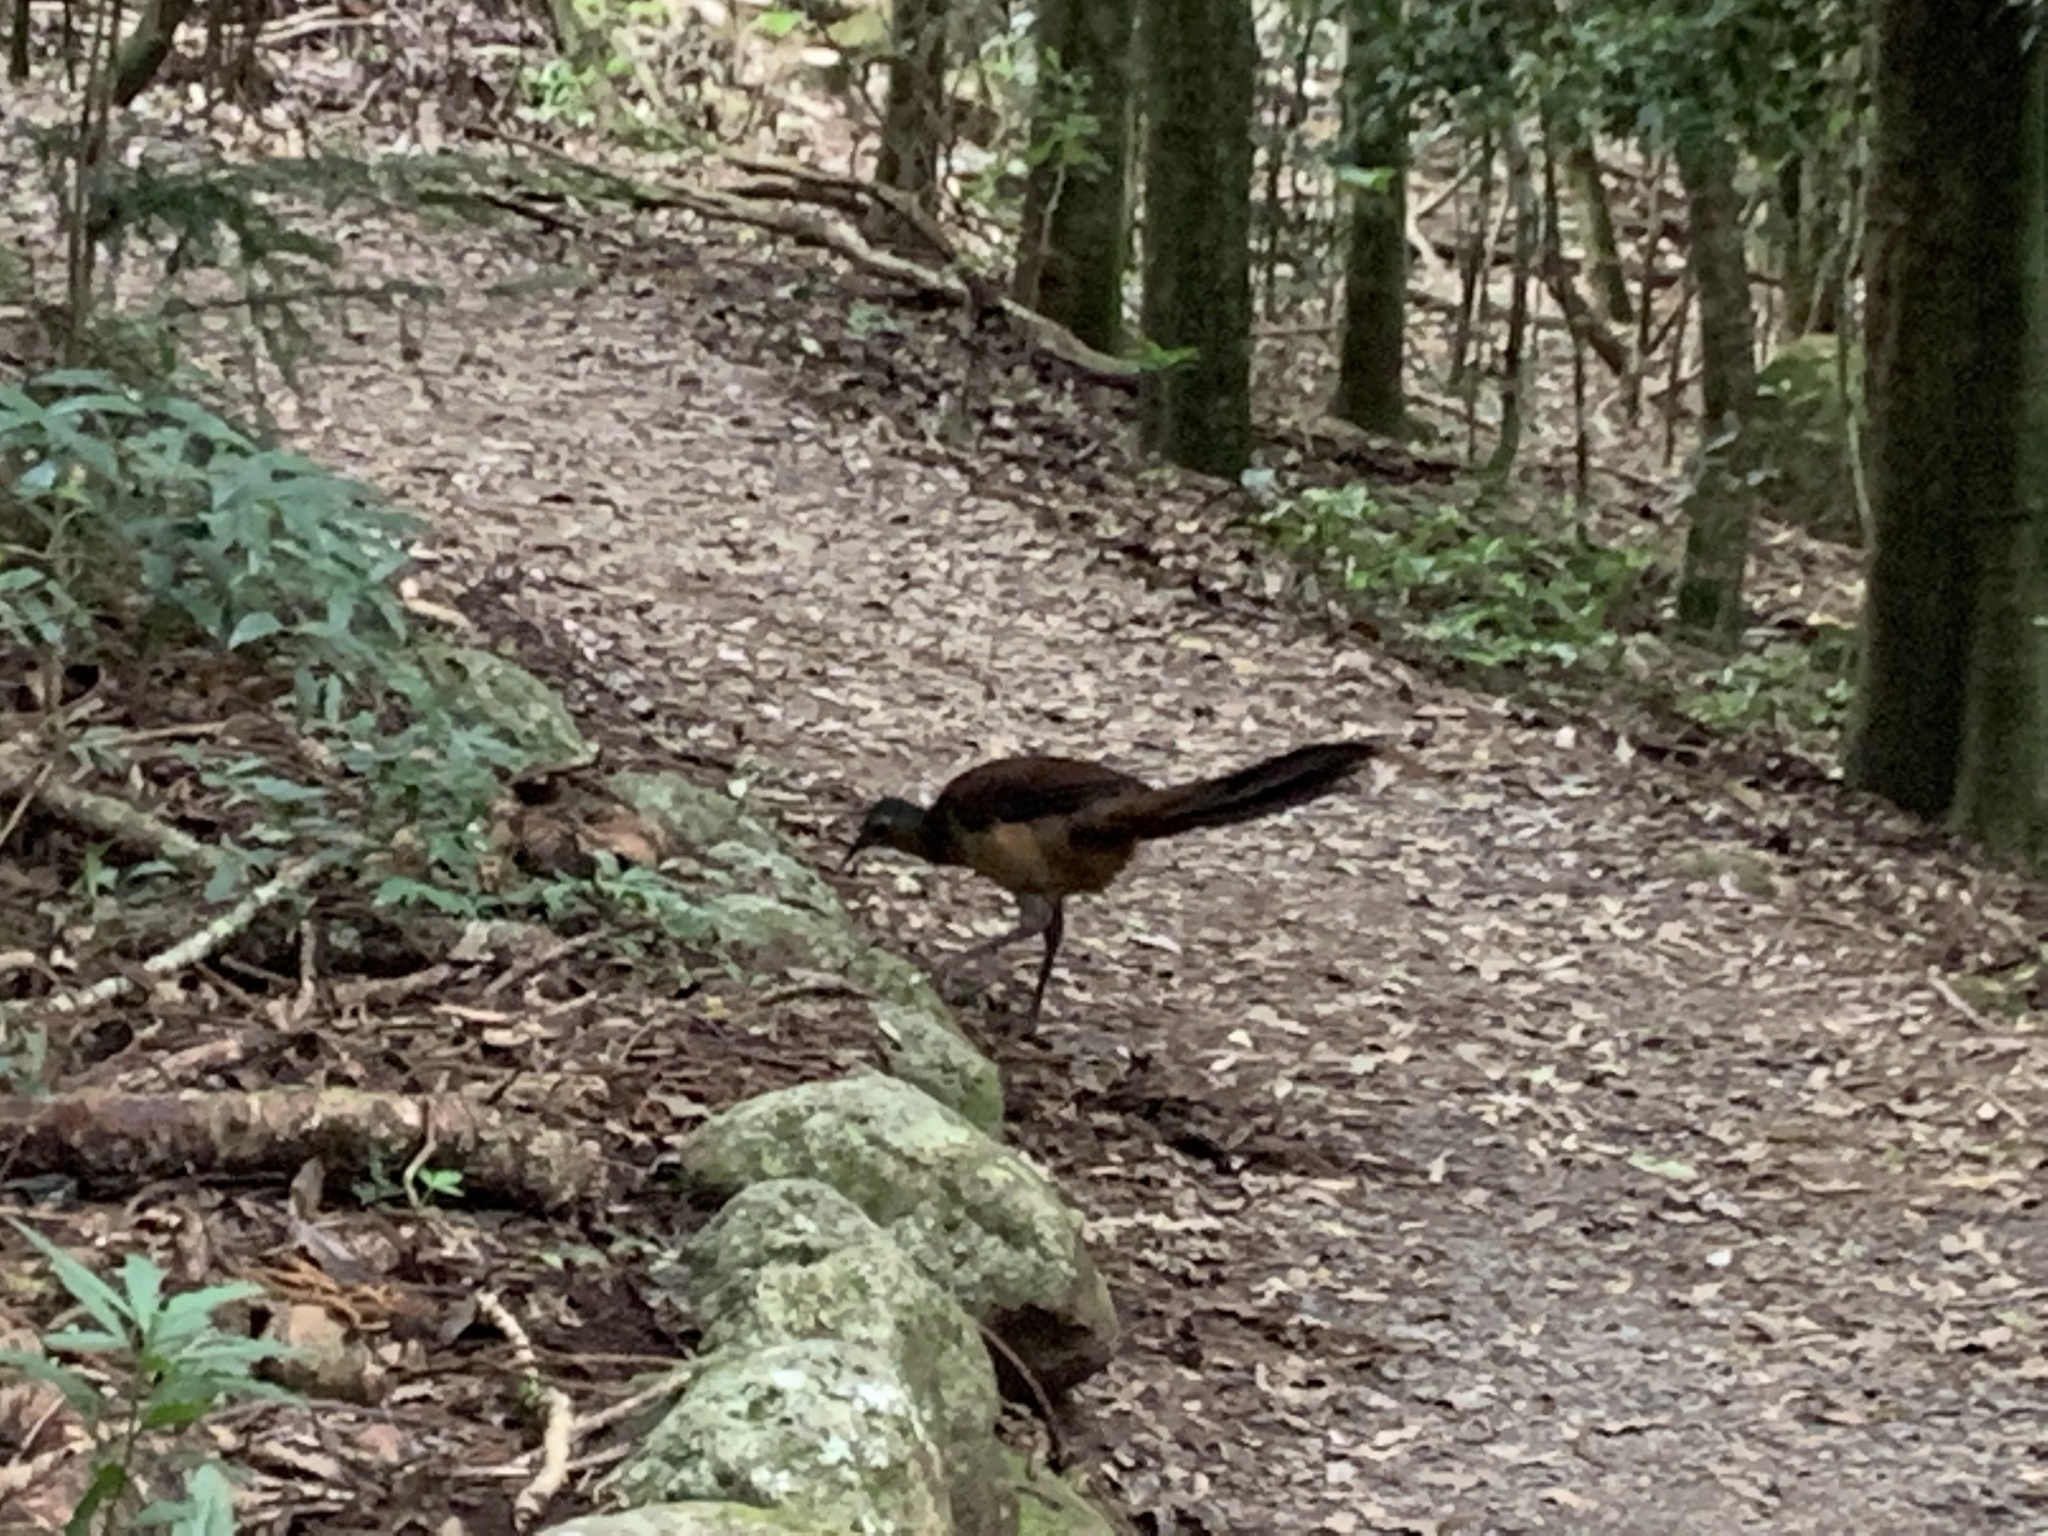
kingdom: Animalia
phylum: Chordata
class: Aves
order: Passeriformes
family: Menuridae
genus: Menura
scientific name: Menura alberti
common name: Albert's lyrebird
